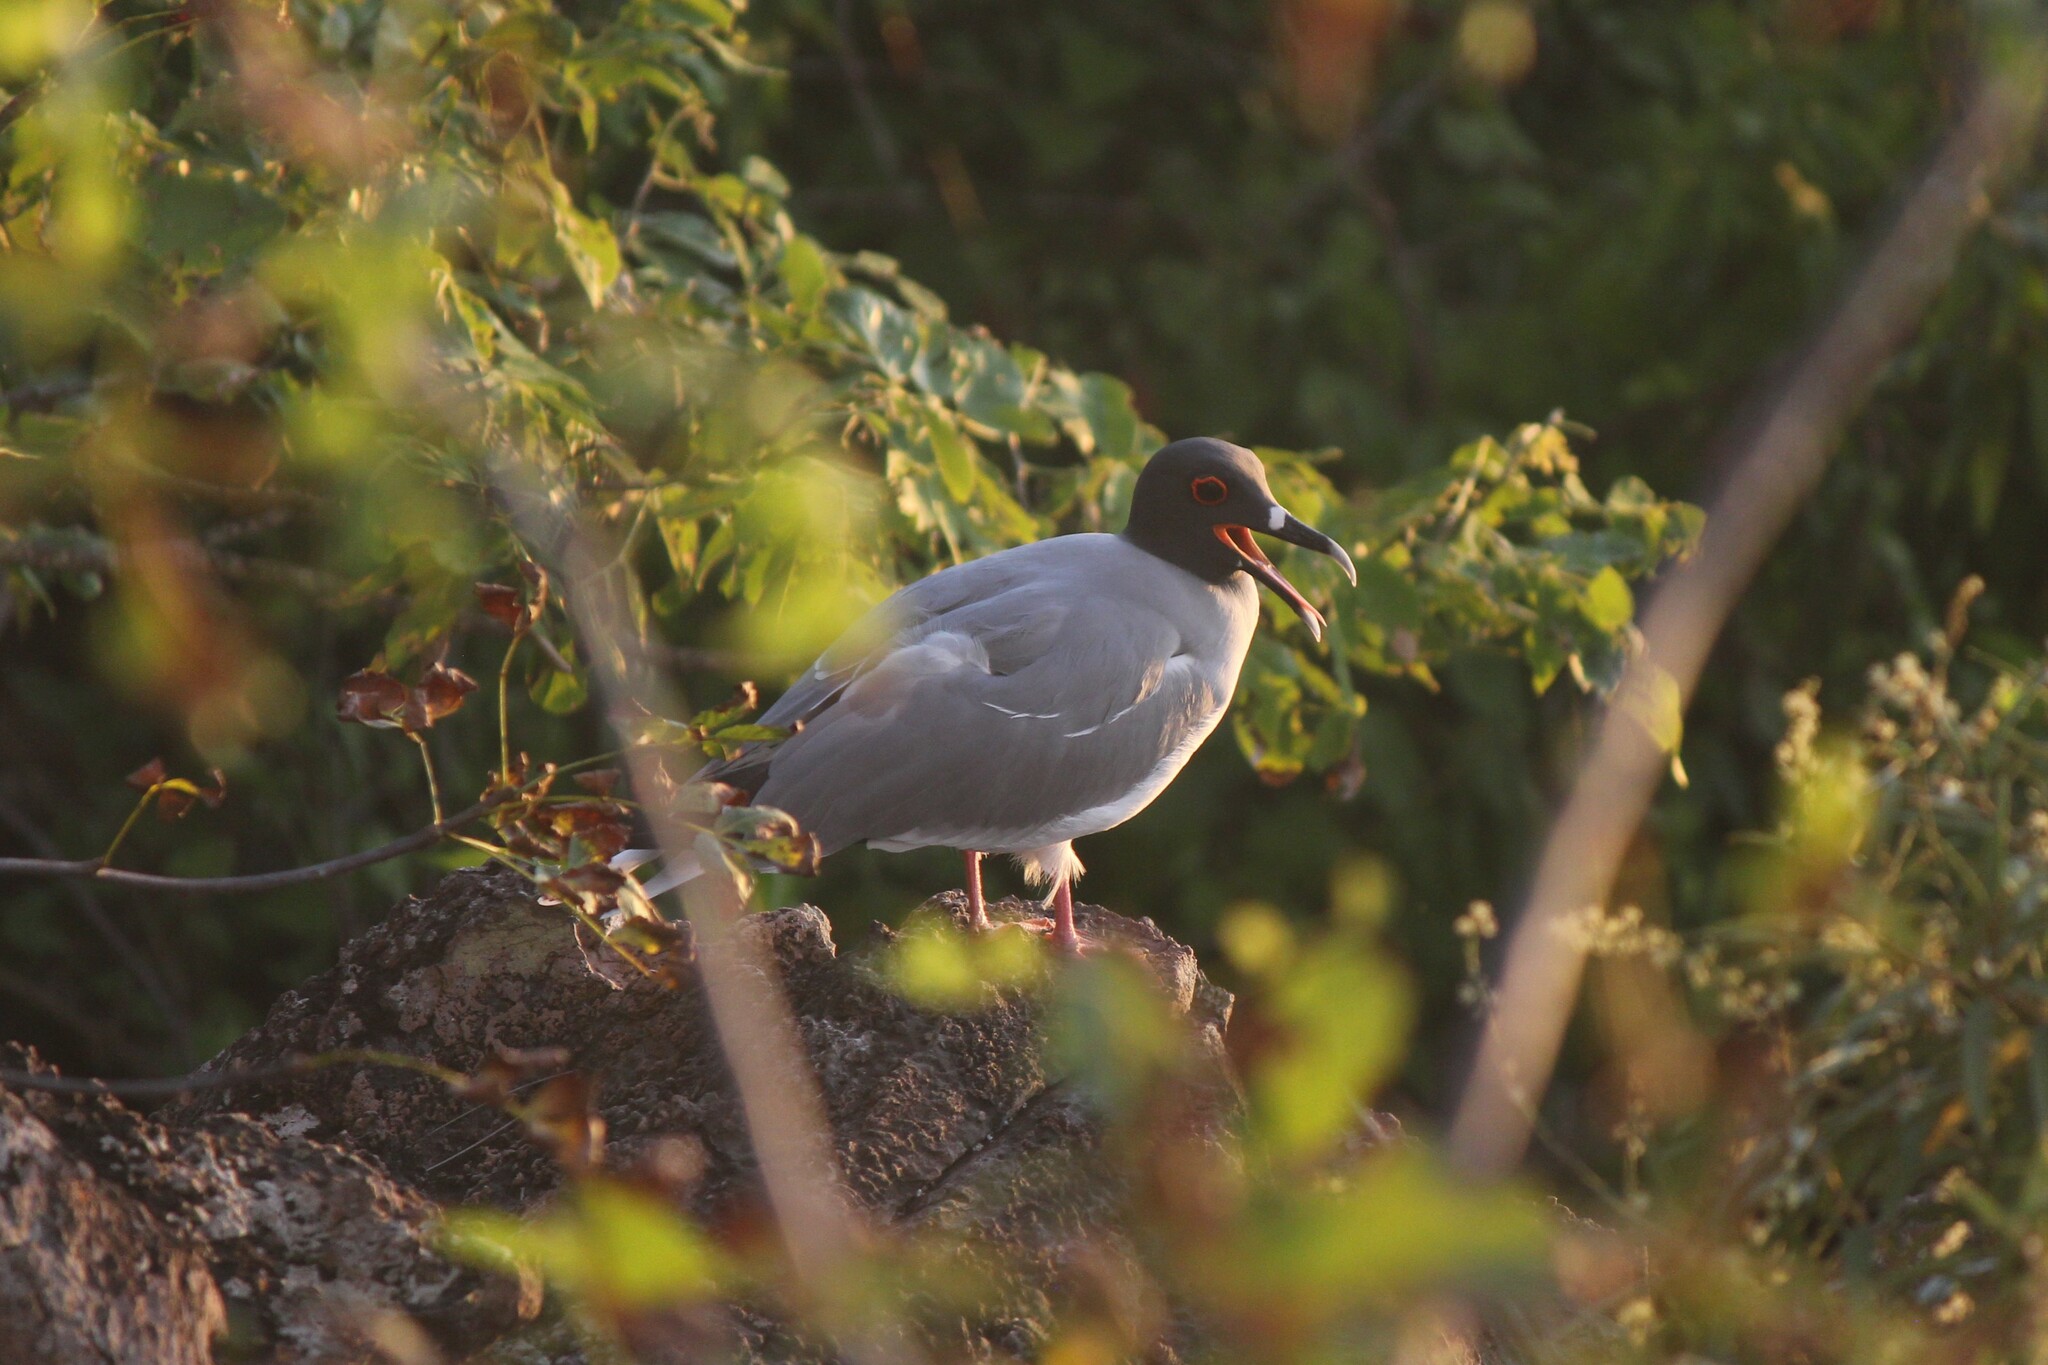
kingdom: Animalia
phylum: Chordata
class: Aves
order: Charadriiformes
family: Laridae
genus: Creagrus
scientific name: Creagrus furcatus
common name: Swallow-tailed gull
